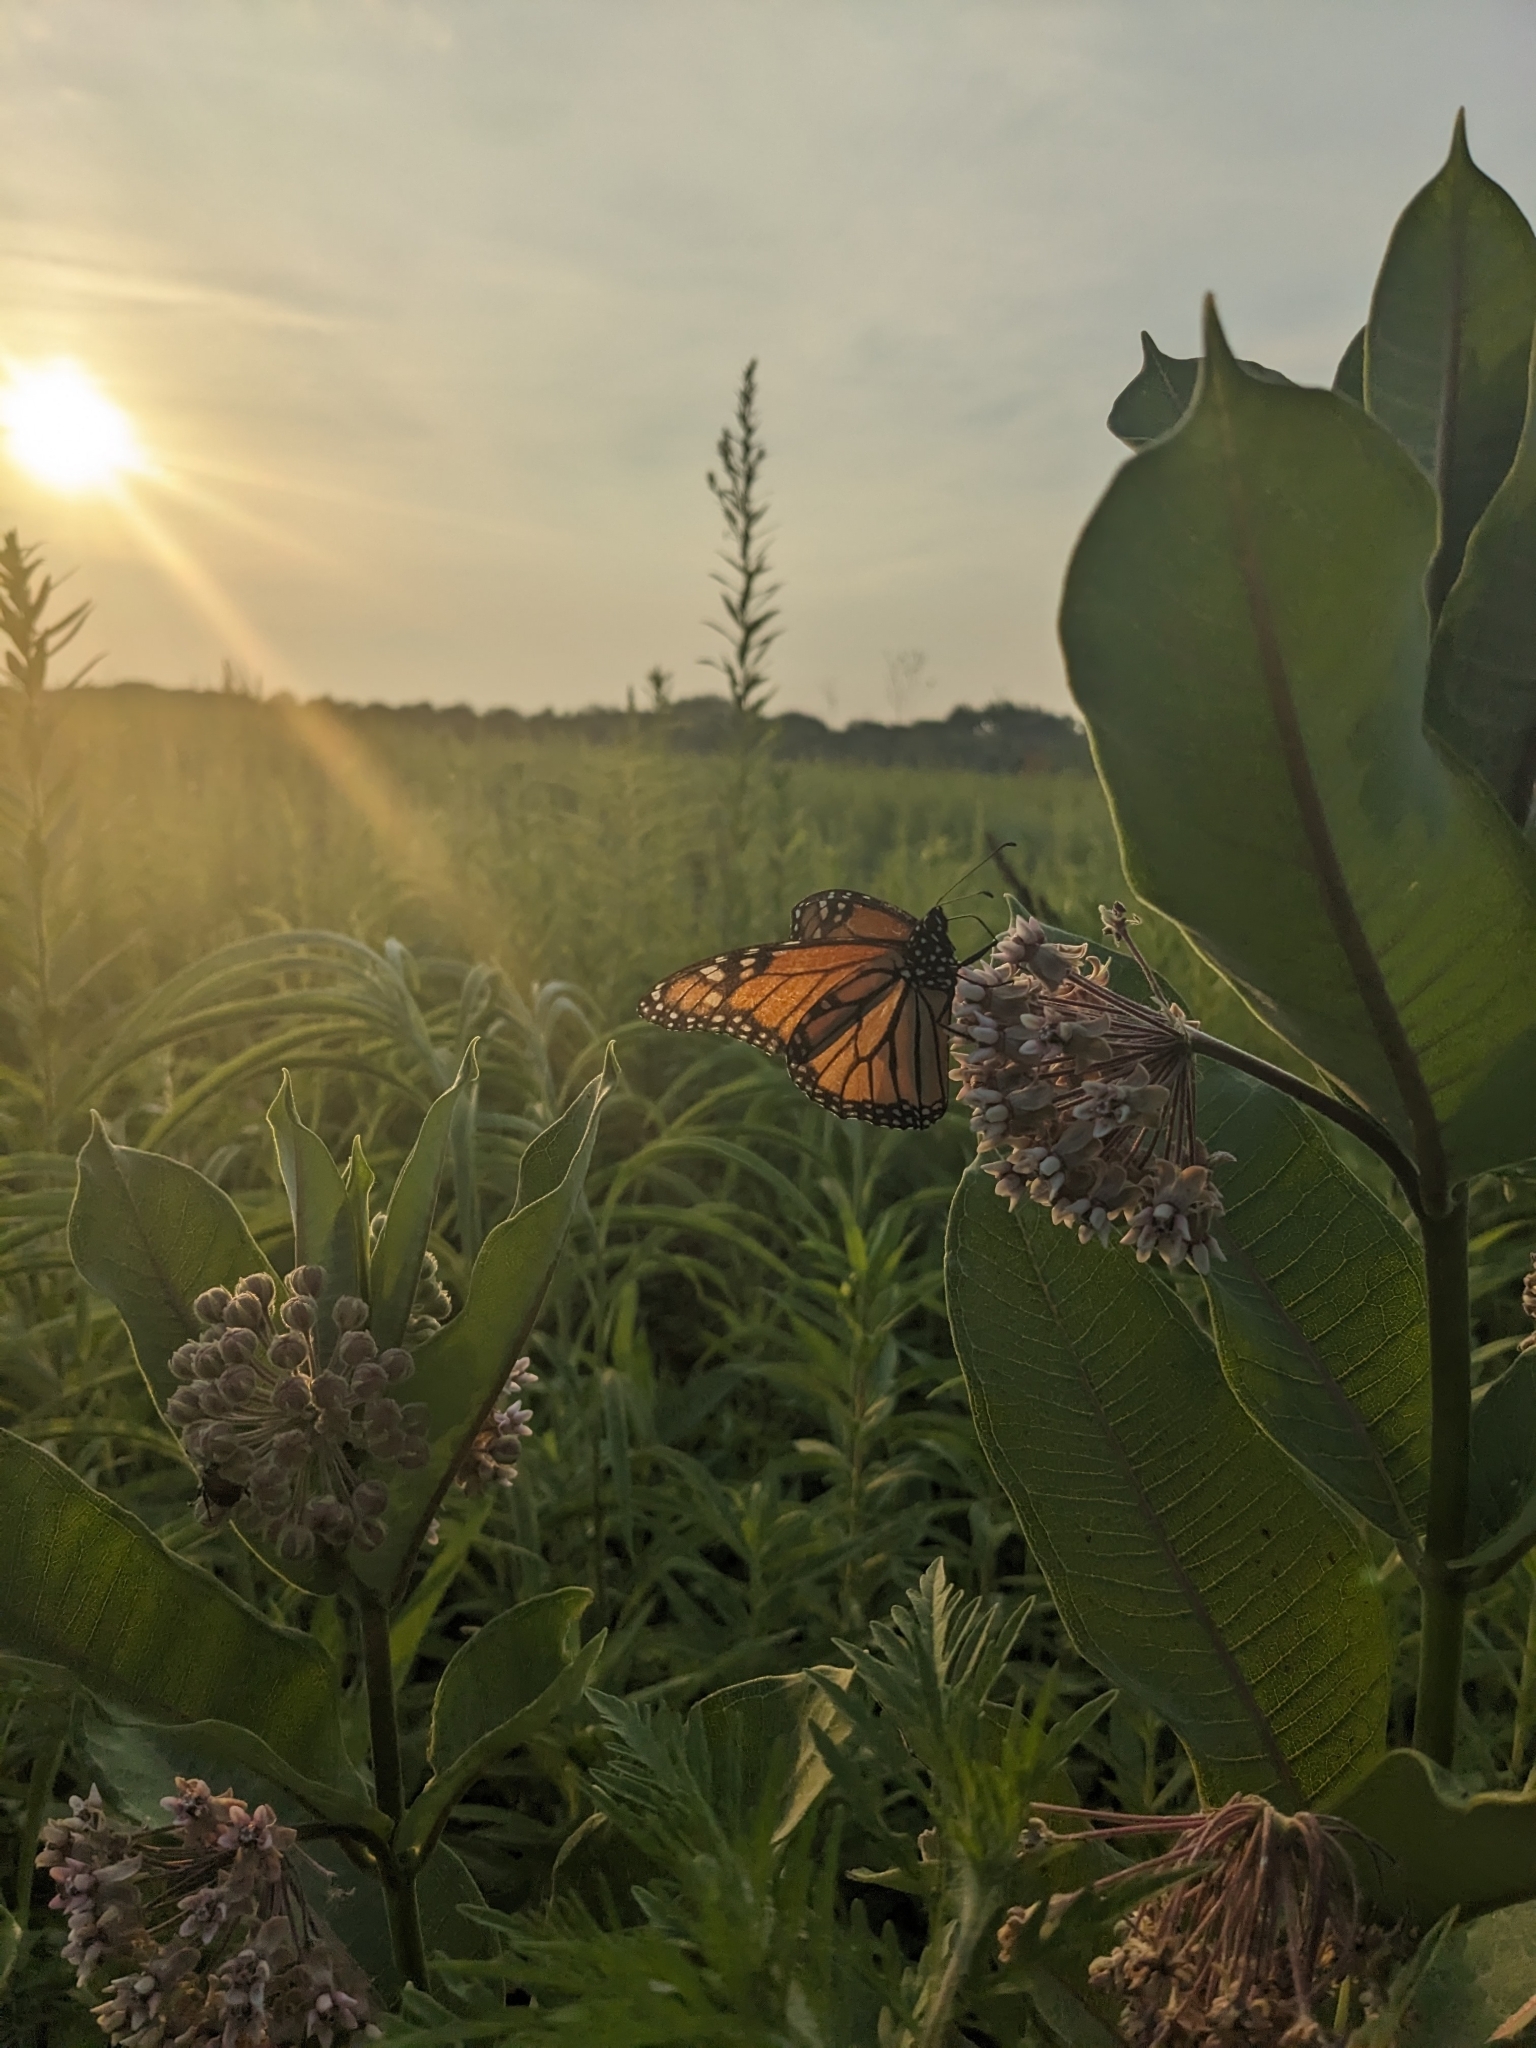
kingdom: Animalia
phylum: Arthropoda
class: Insecta
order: Lepidoptera
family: Nymphalidae
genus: Danaus
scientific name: Danaus plexippus
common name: Monarch
